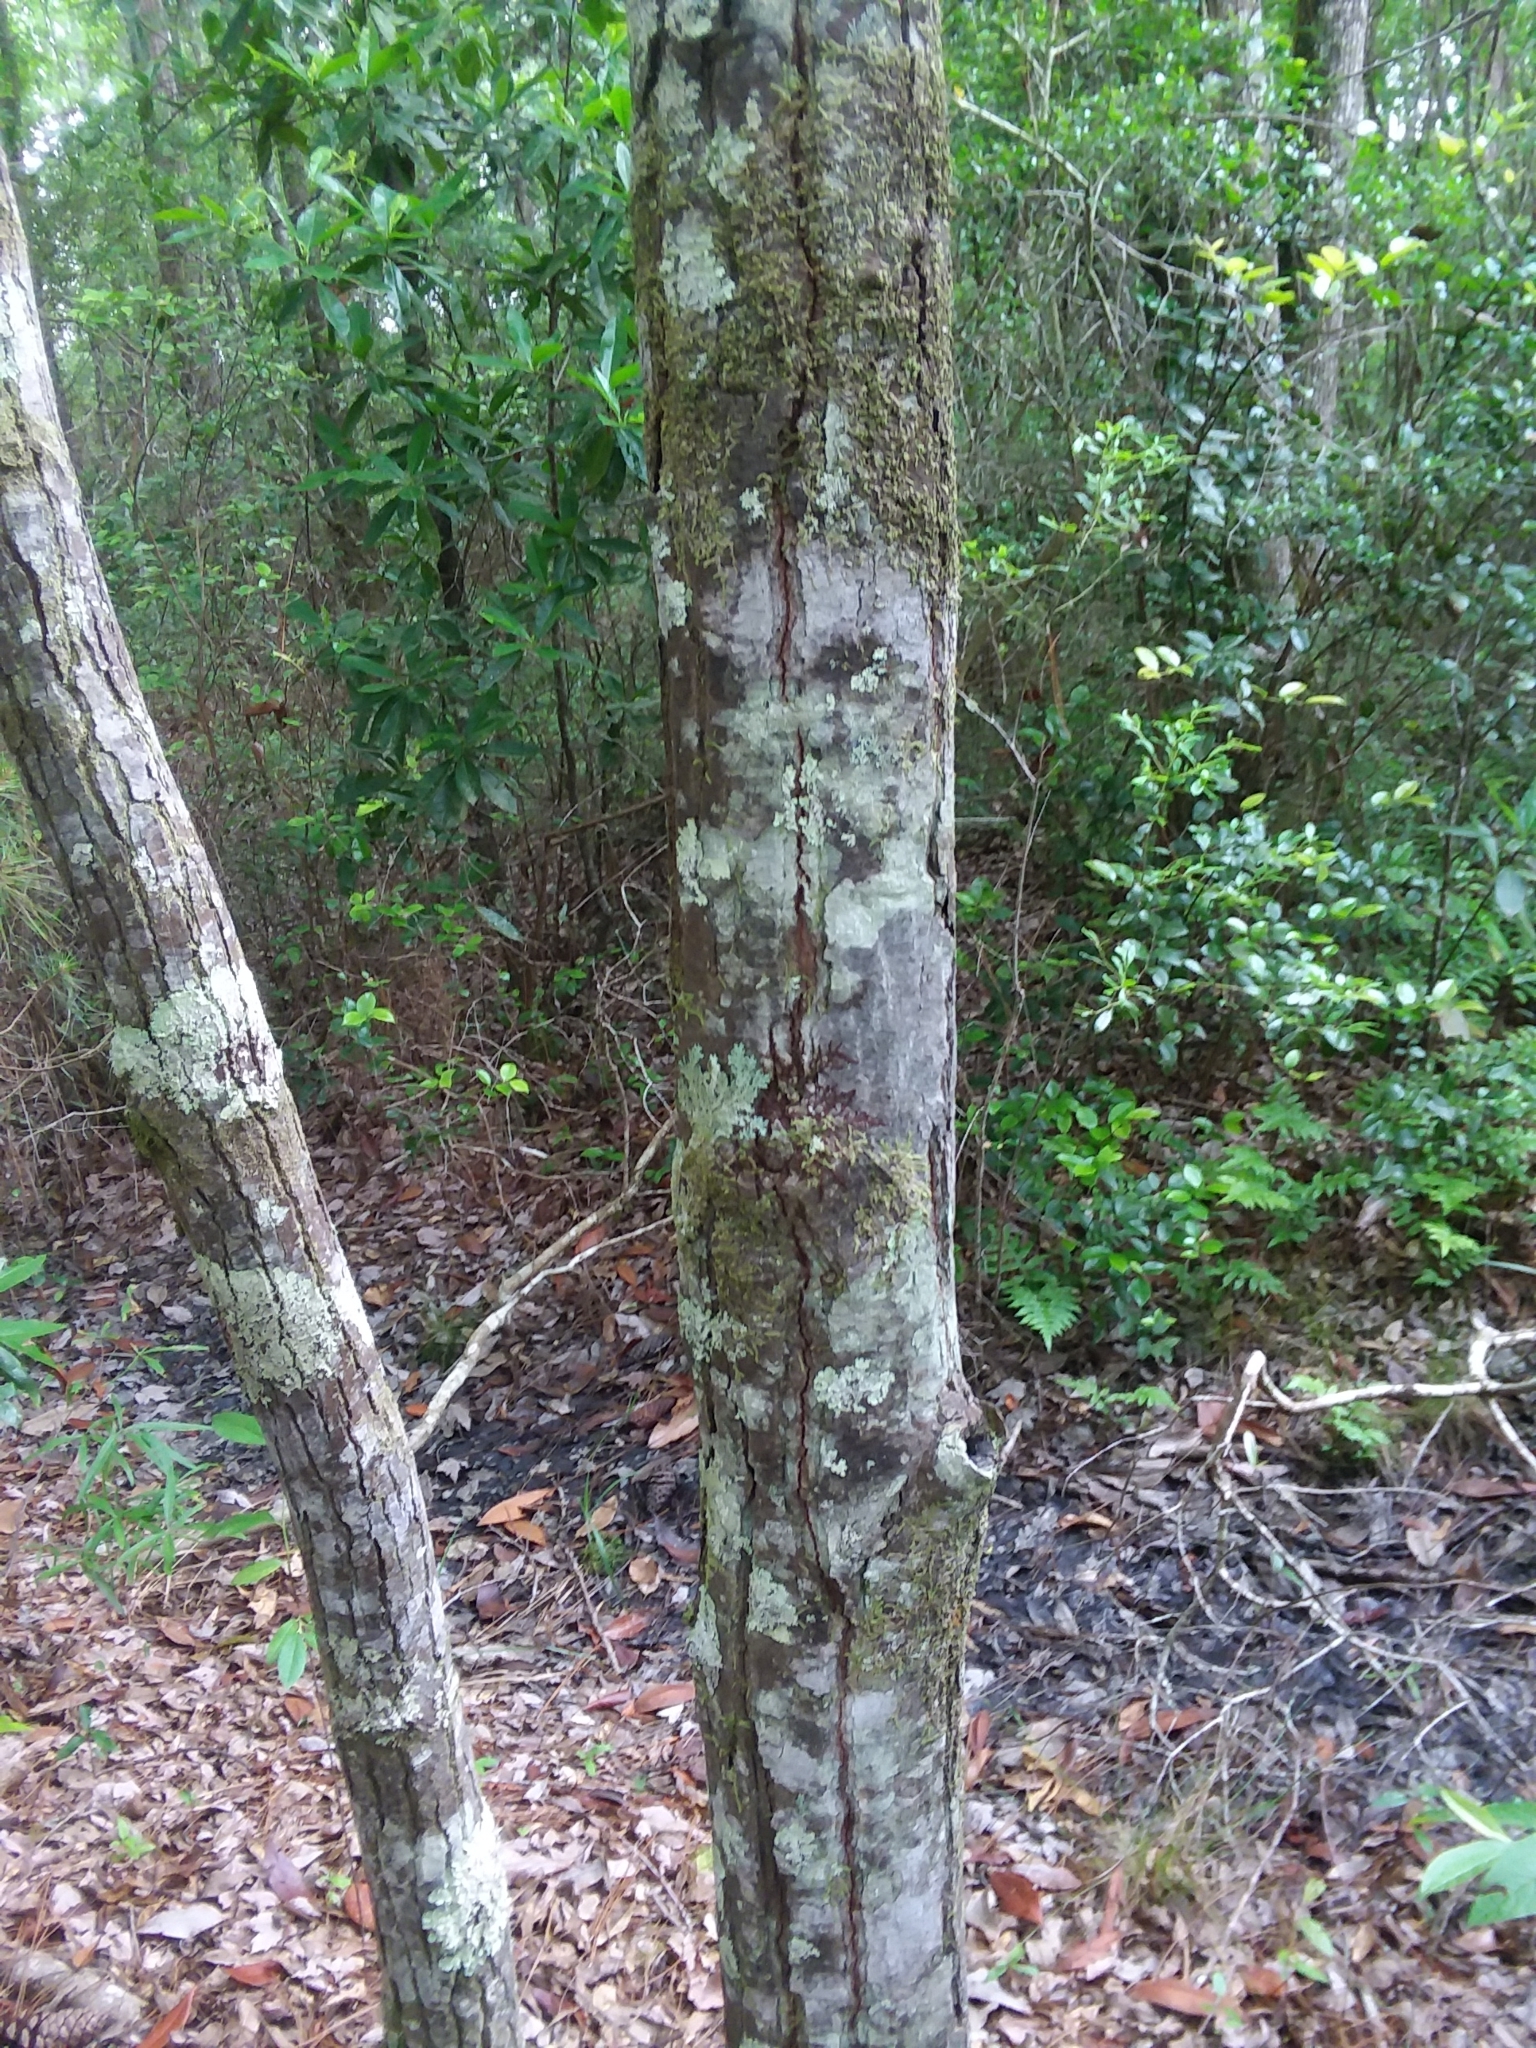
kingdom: Plantae
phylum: Tracheophyta
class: Magnoliopsida
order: Ericales
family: Theaceae
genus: Gordonia
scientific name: Gordonia lasianthus
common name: Loblolly bay
